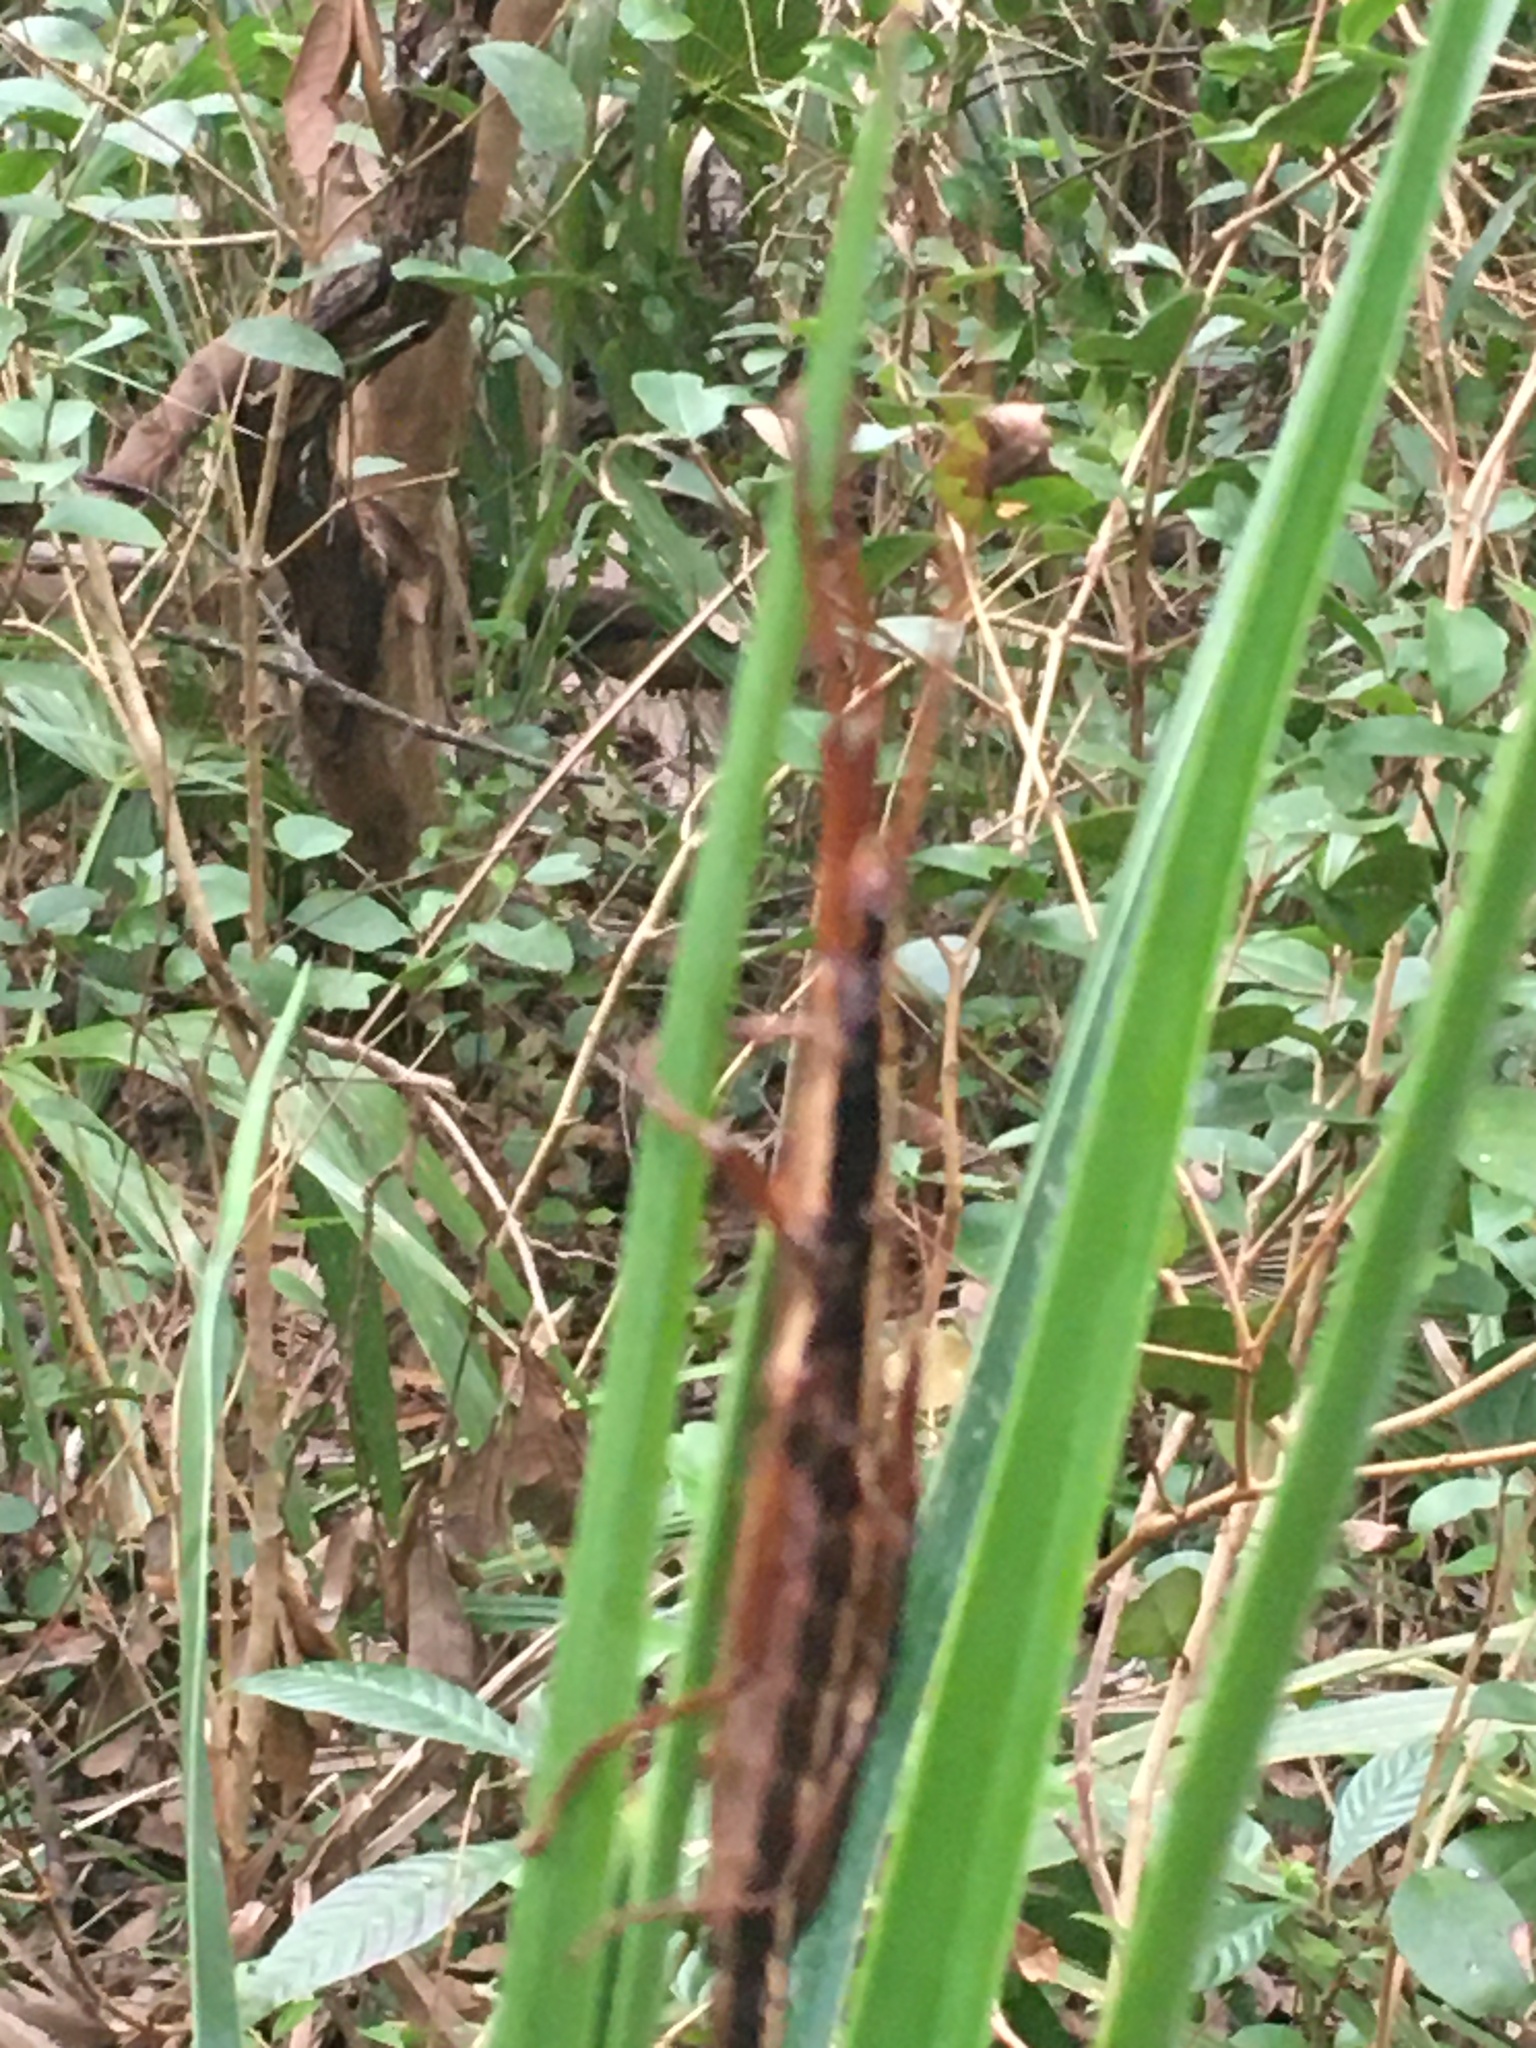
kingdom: Animalia
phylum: Arthropoda
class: Insecta
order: Phasmida
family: Pseudophasmatidae
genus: Anisomorpha
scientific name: Anisomorpha buprestoides
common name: Florida stick insect
